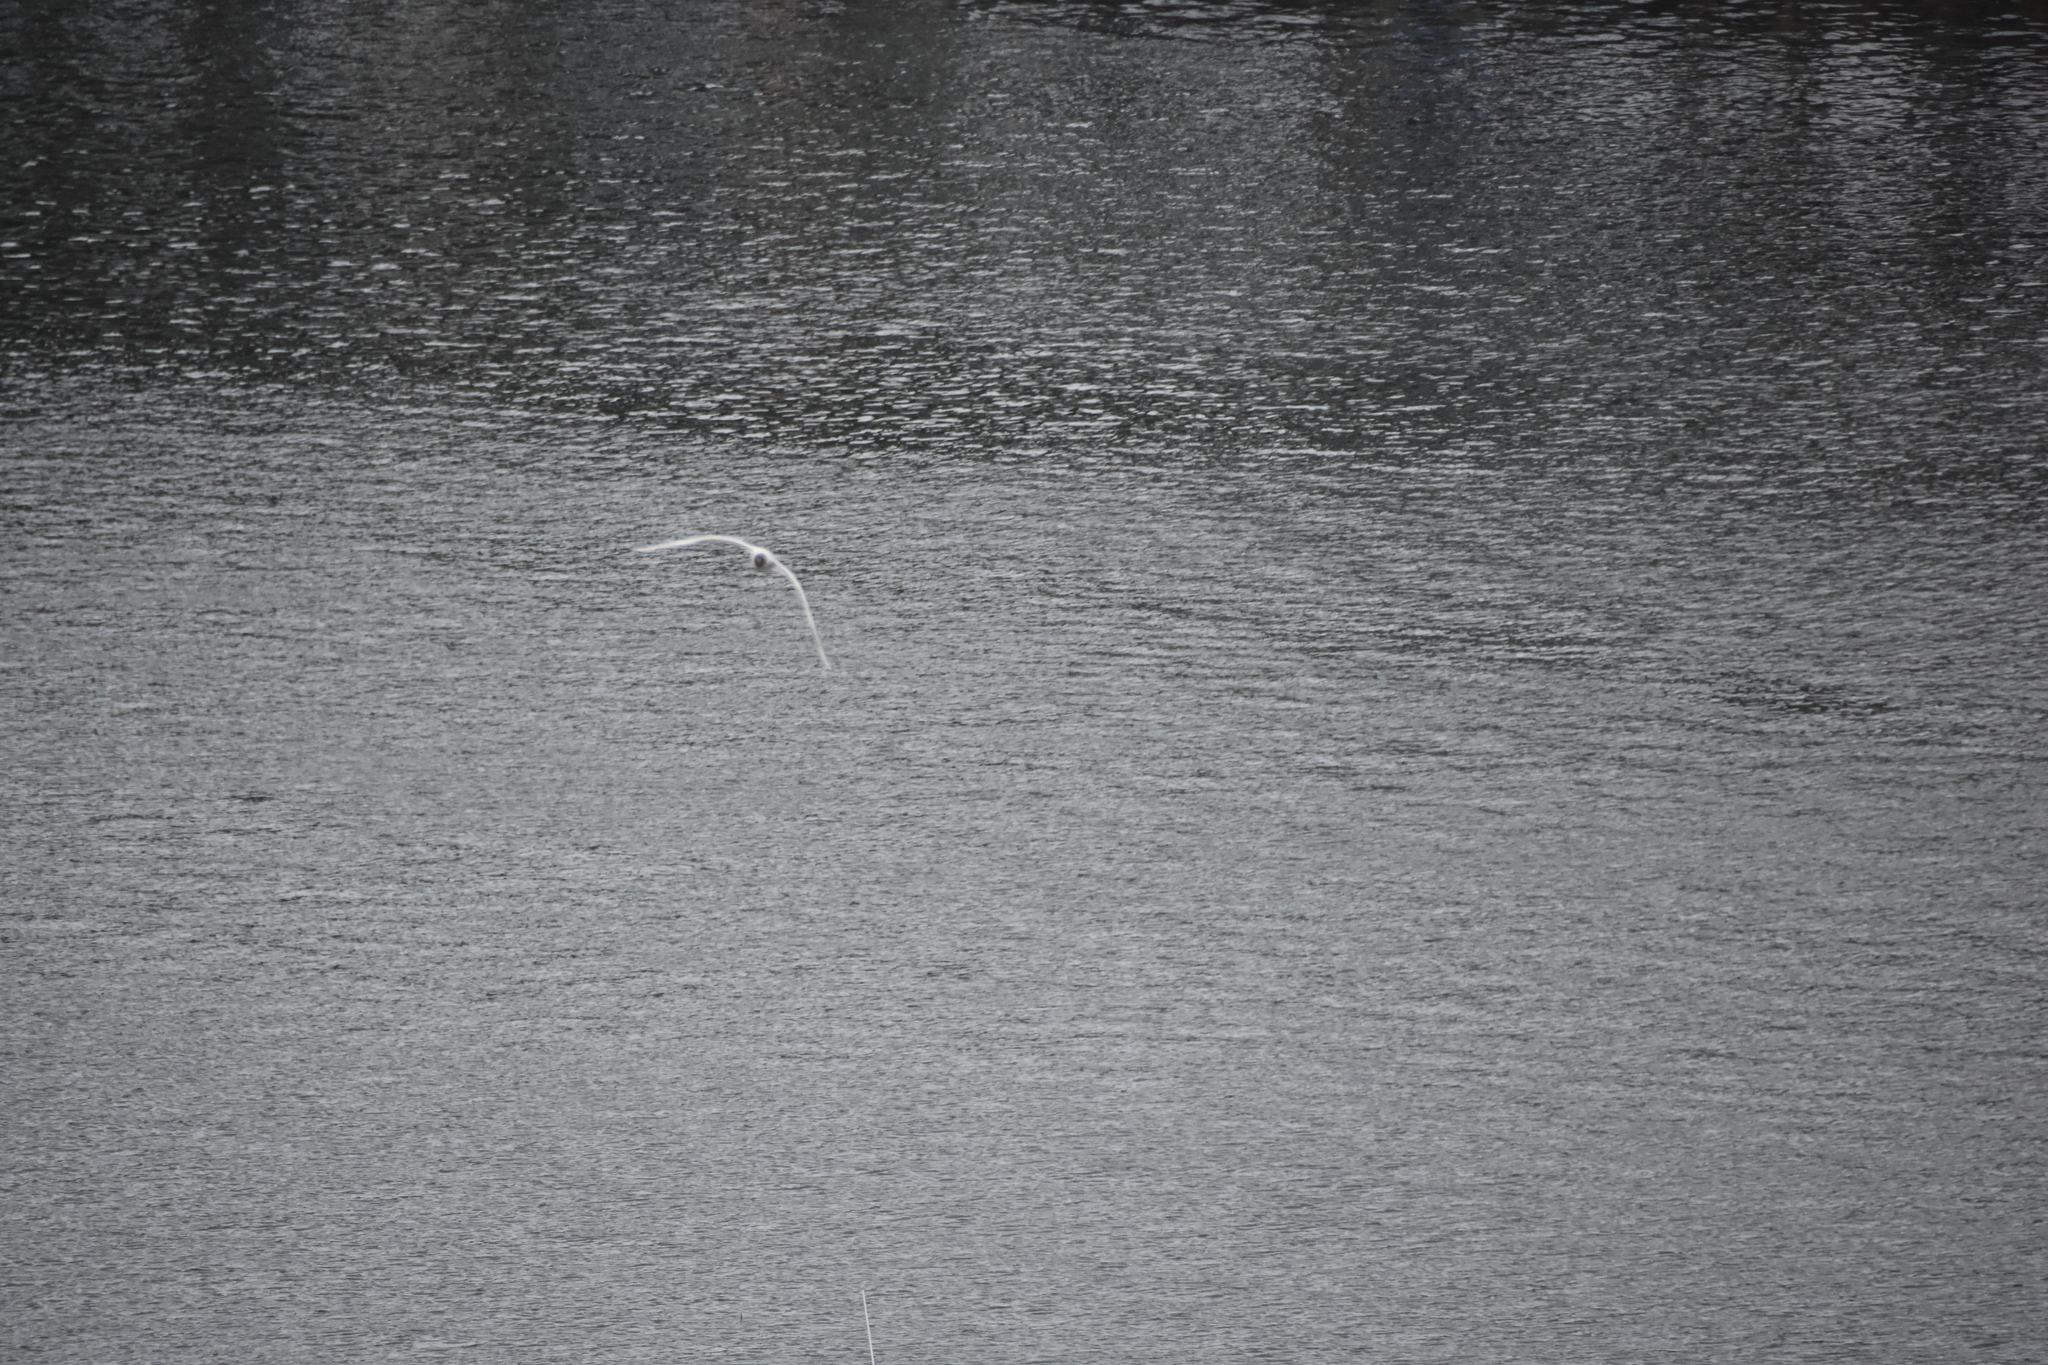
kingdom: Animalia
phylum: Chordata
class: Aves
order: Charadriiformes
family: Laridae
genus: Chroicocephalus
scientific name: Chroicocephalus maculipennis
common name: Brown-hooded gull
